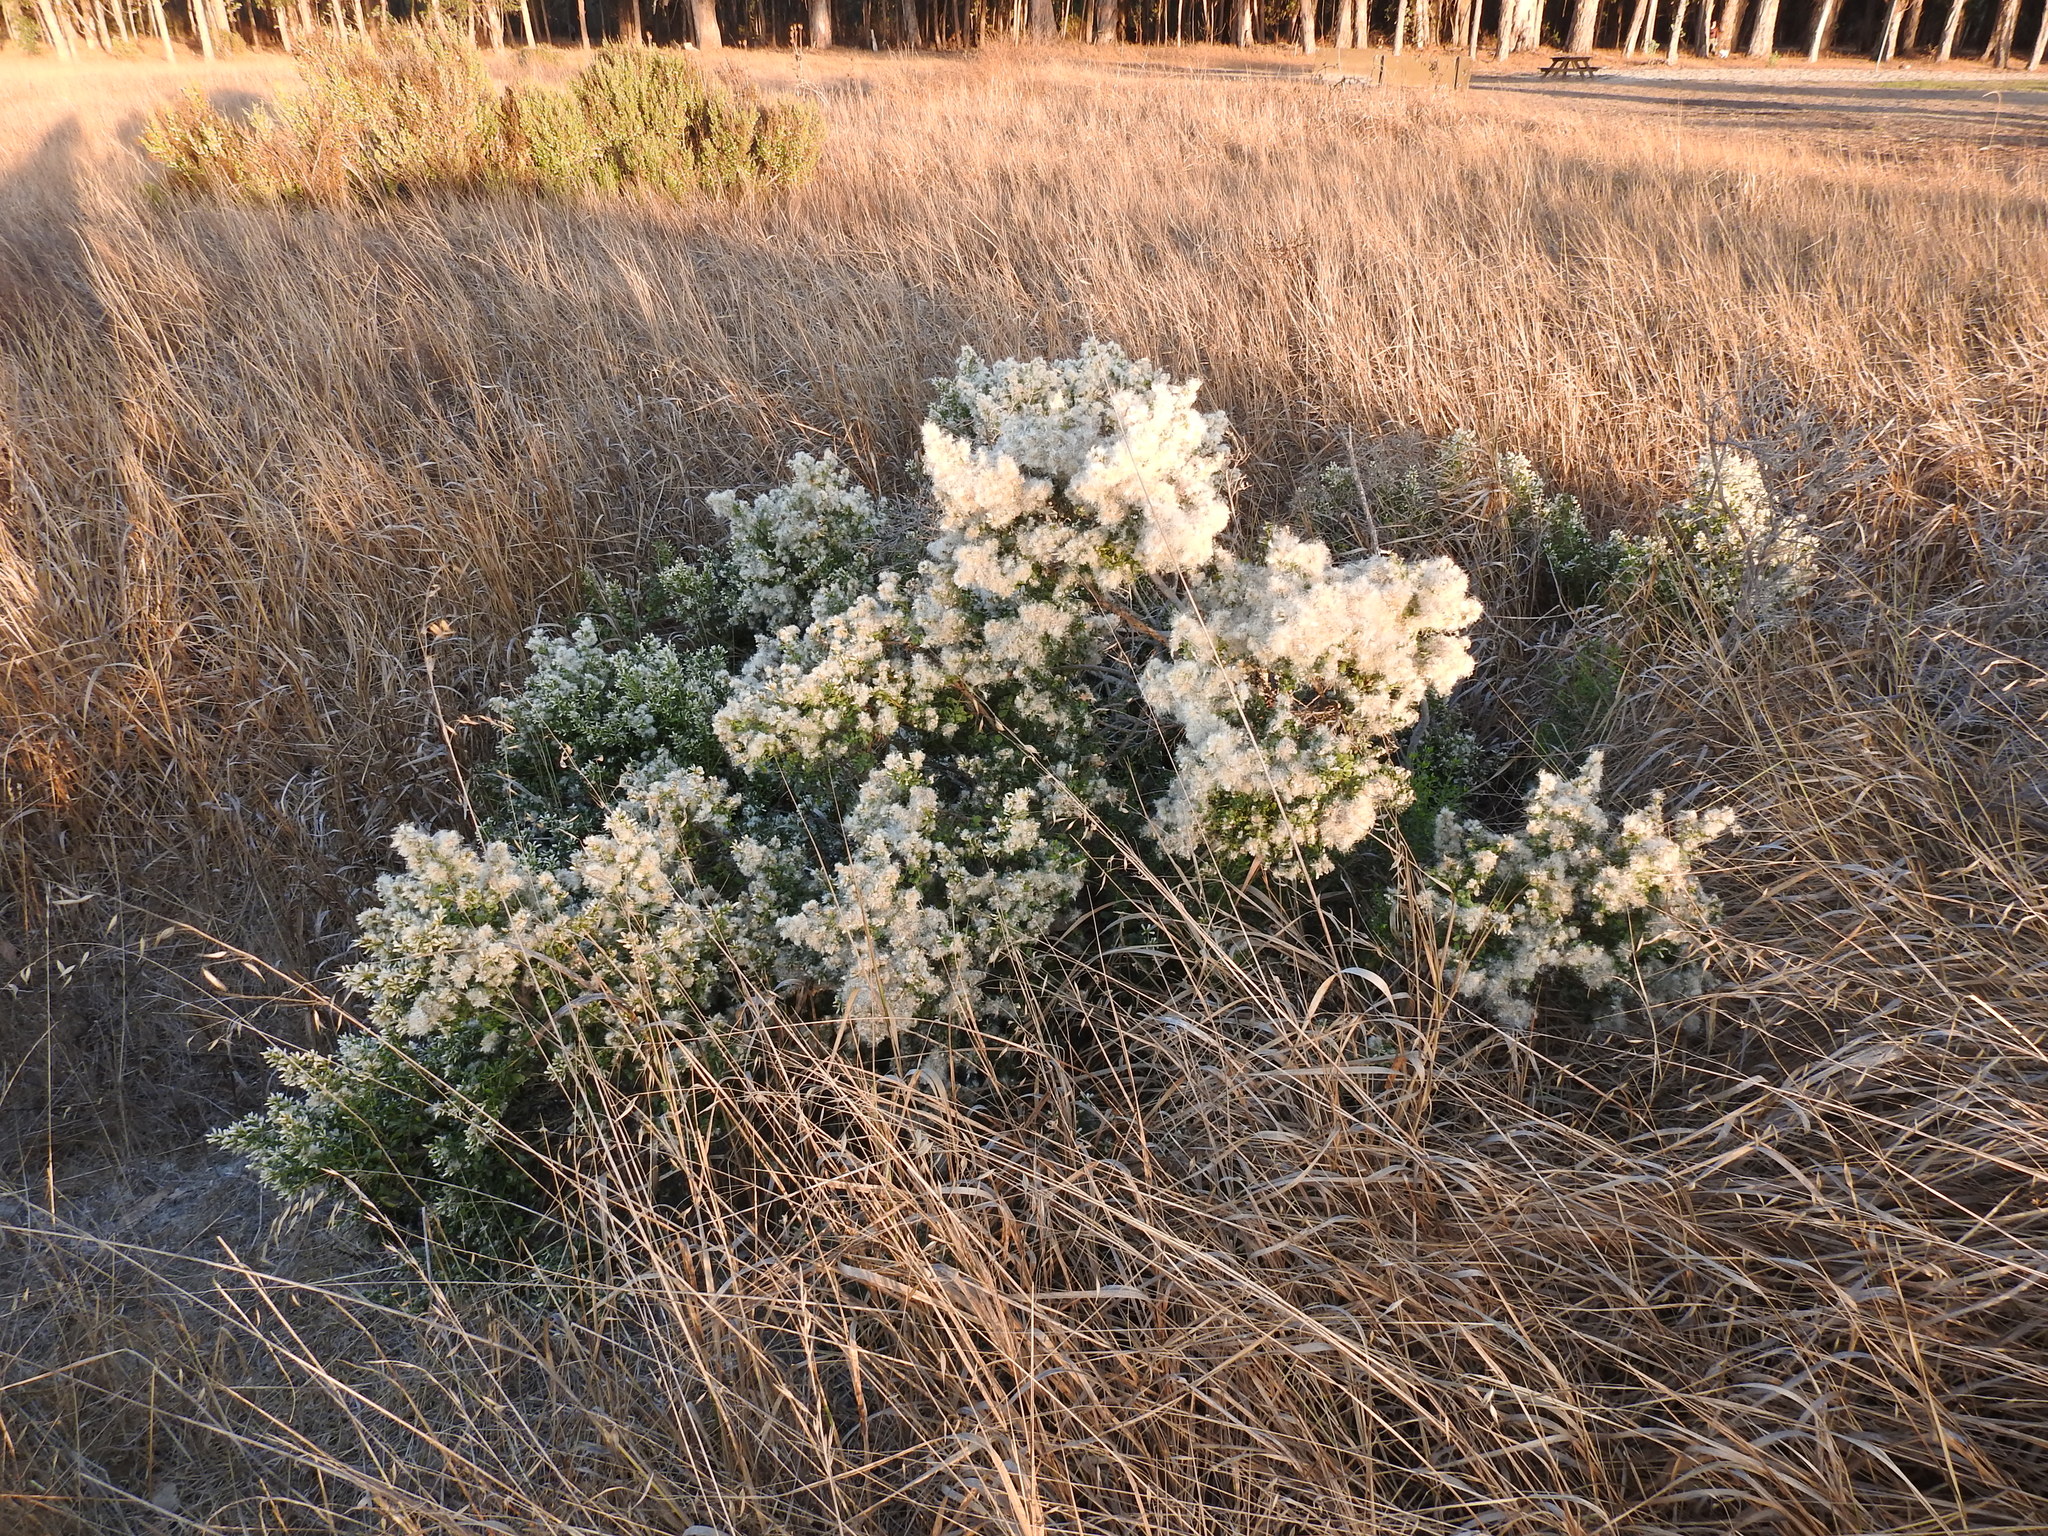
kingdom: Plantae
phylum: Tracheophyta
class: Magnoliopsida
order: Asterales
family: Asteraceae
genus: Baccharis
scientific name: Baccharis pilularis
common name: Coyotebrush
